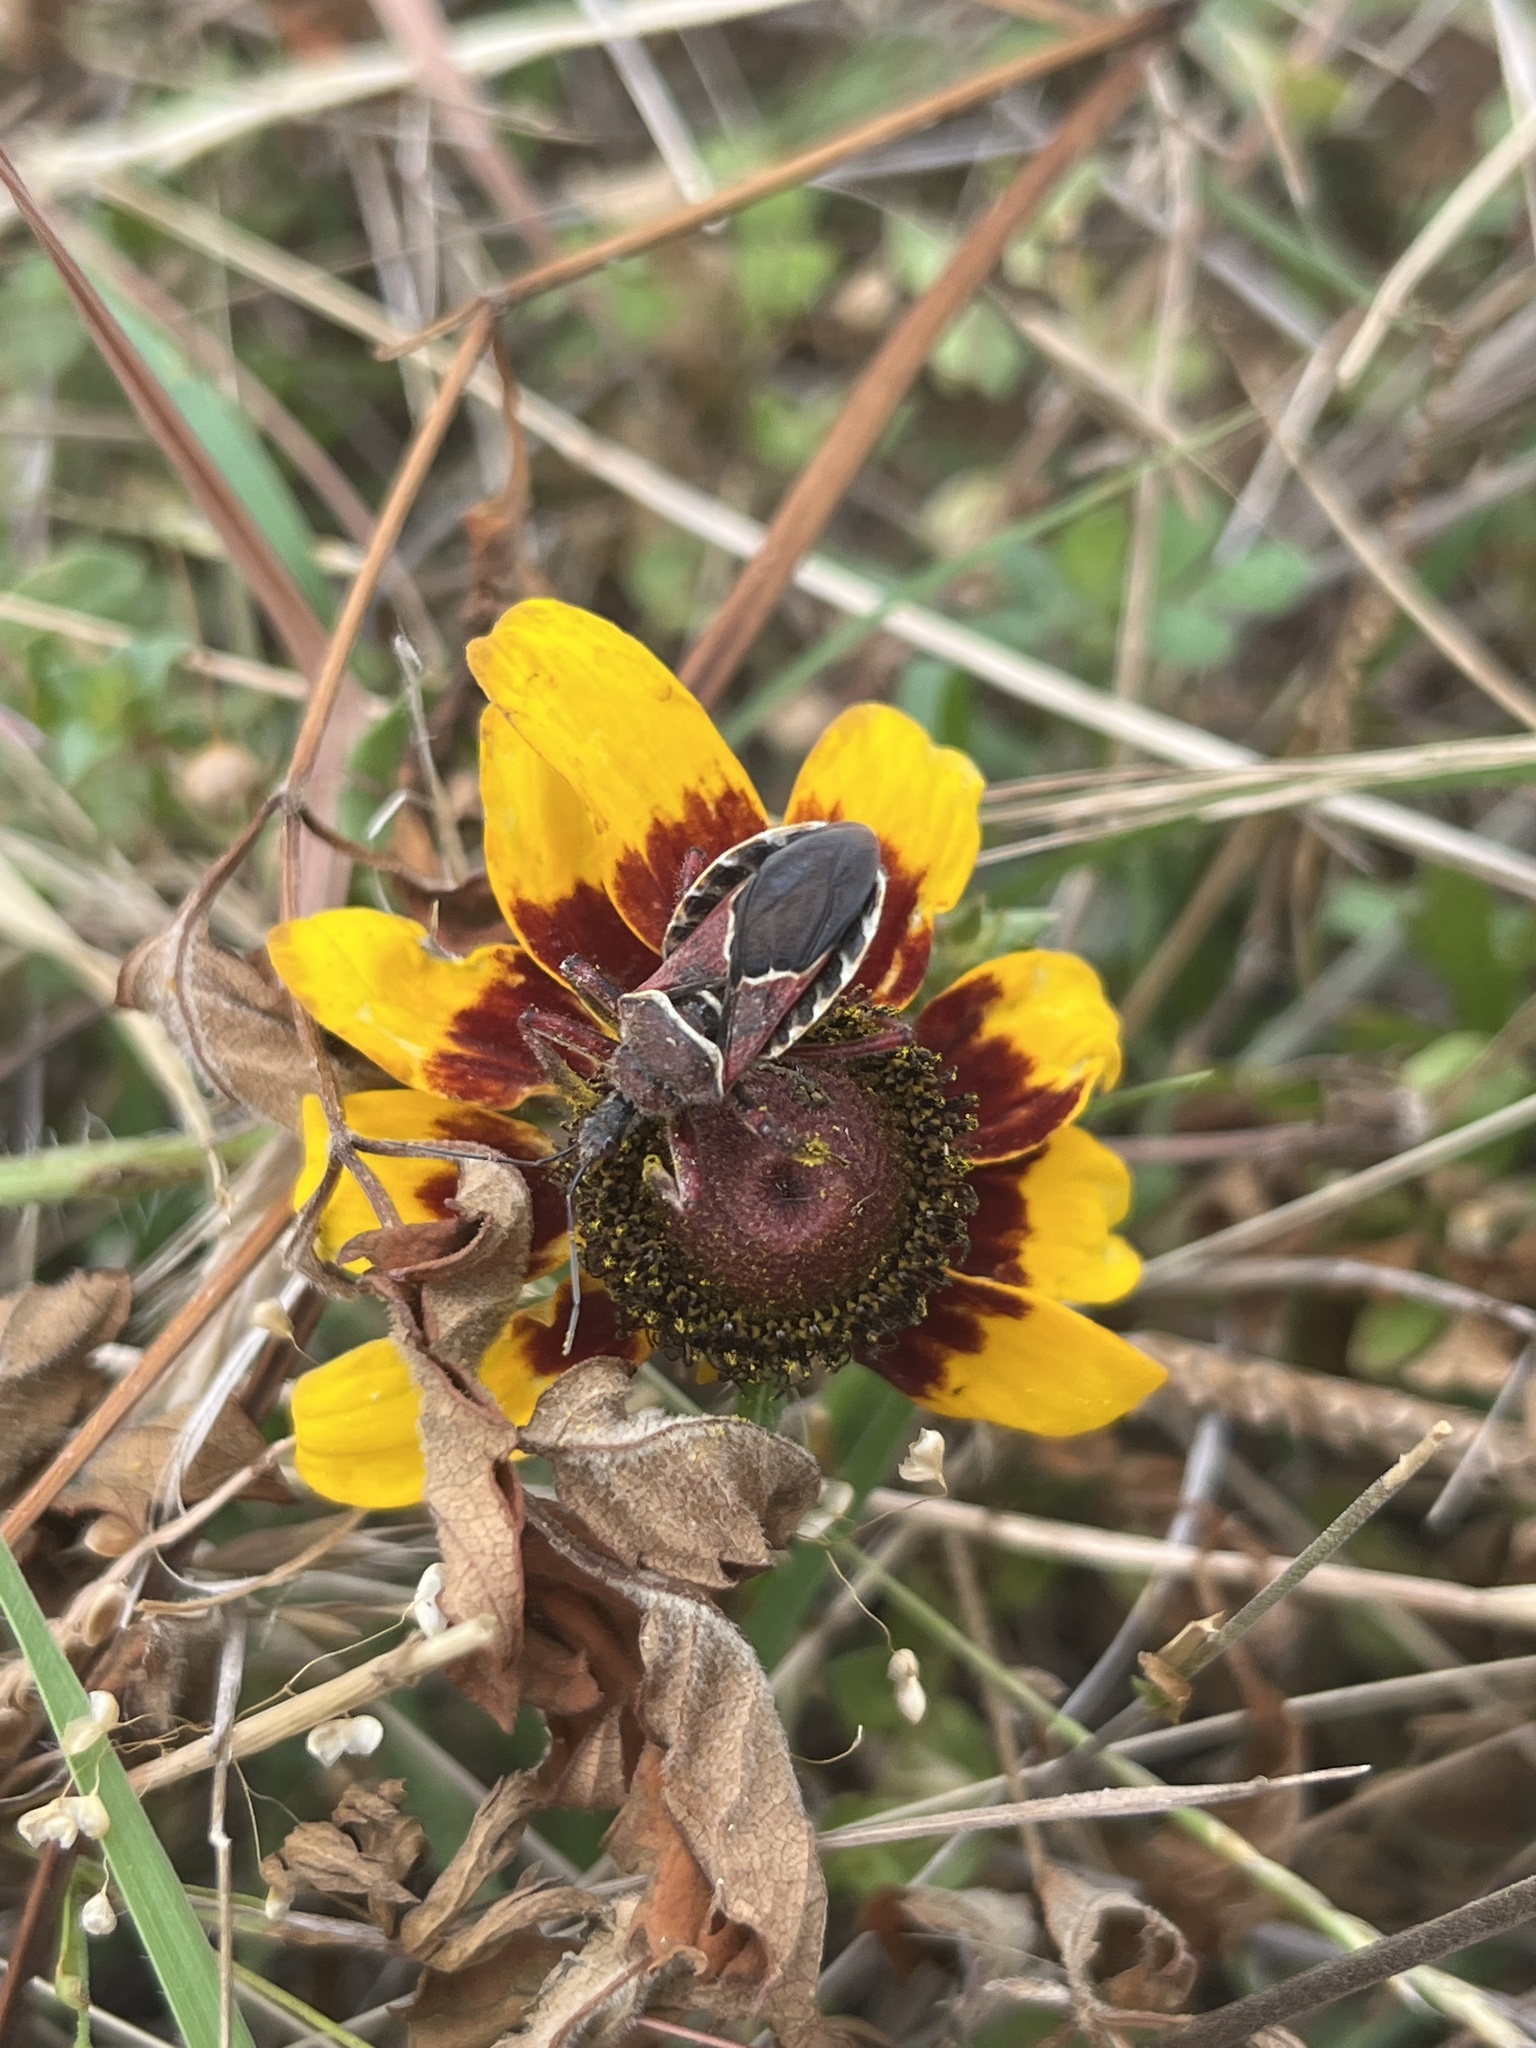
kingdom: Animalia
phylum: Arthropoda
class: Insecta
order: Hemiptera
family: Reduviidae
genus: Apiomerus
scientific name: Apiomerus spissipes
